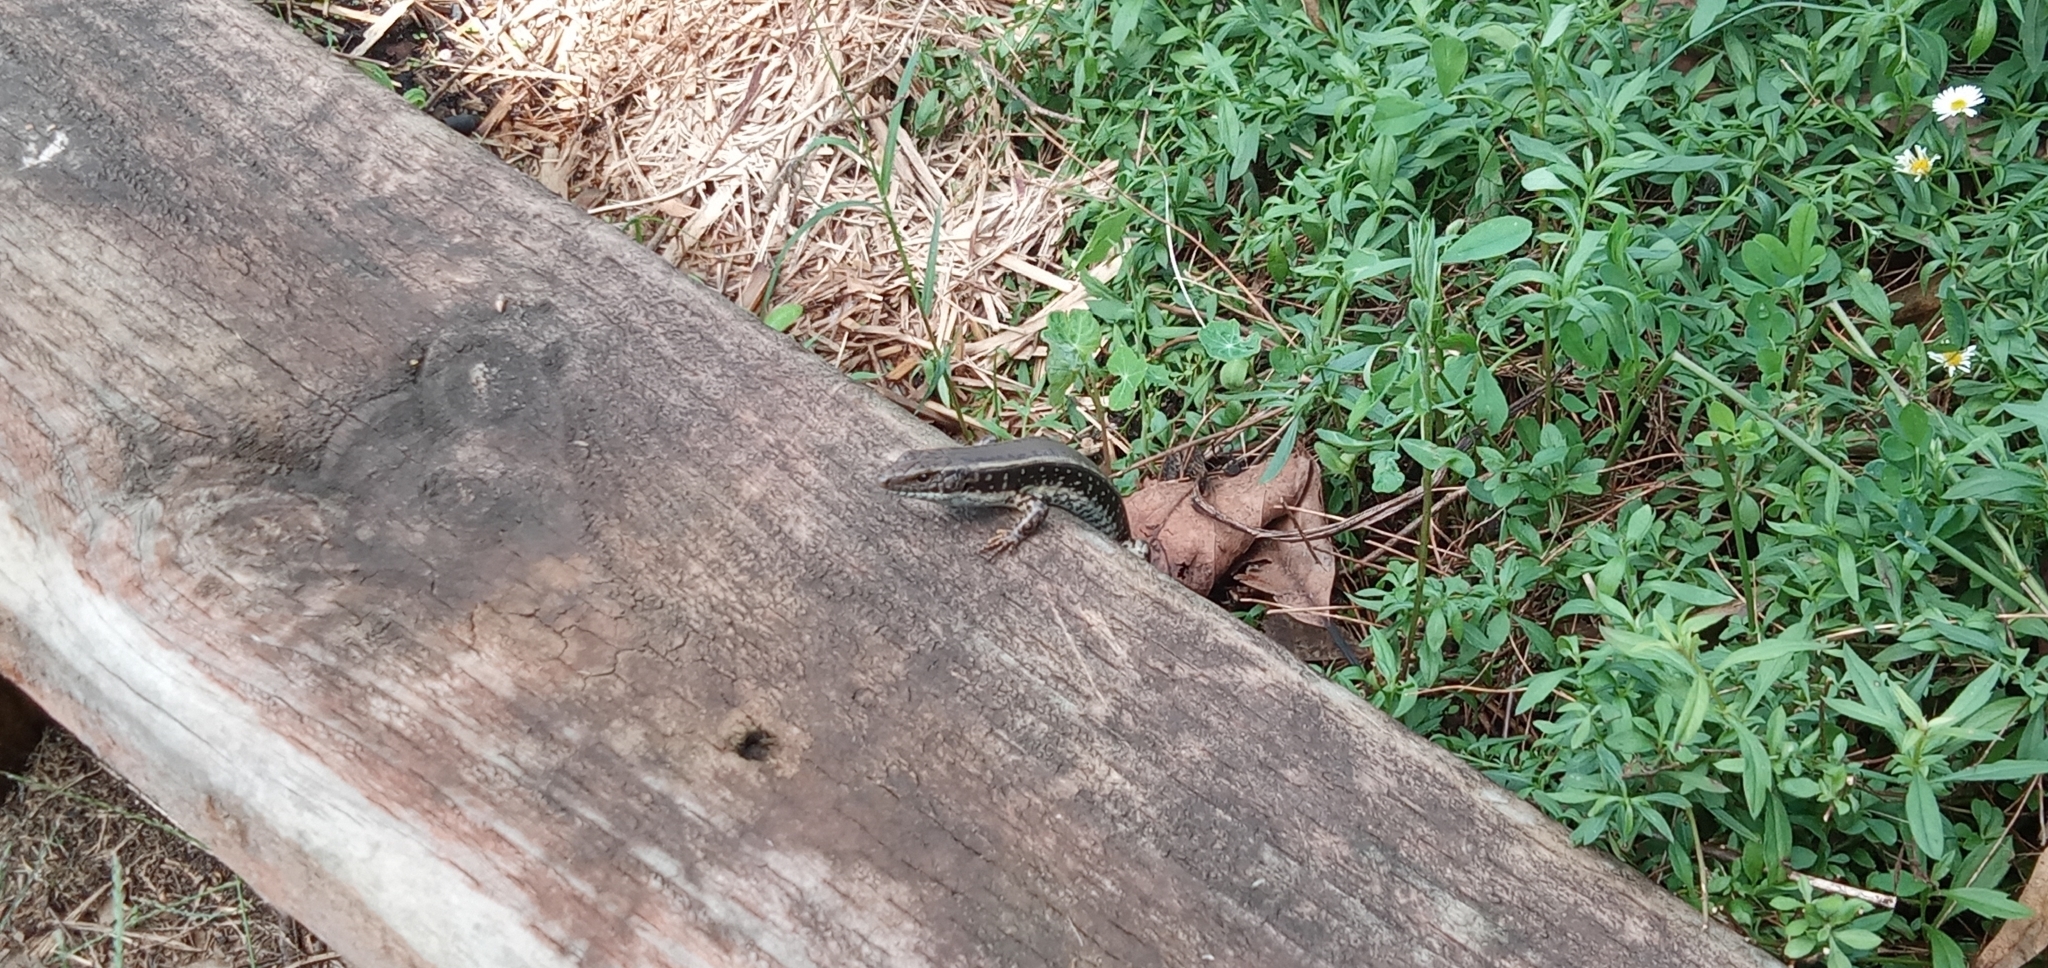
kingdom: Animalia
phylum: Chordata
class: Squamata
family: Scincidae
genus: Eulamprus
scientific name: Eulamprus quoyii
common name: Eastern water skink
